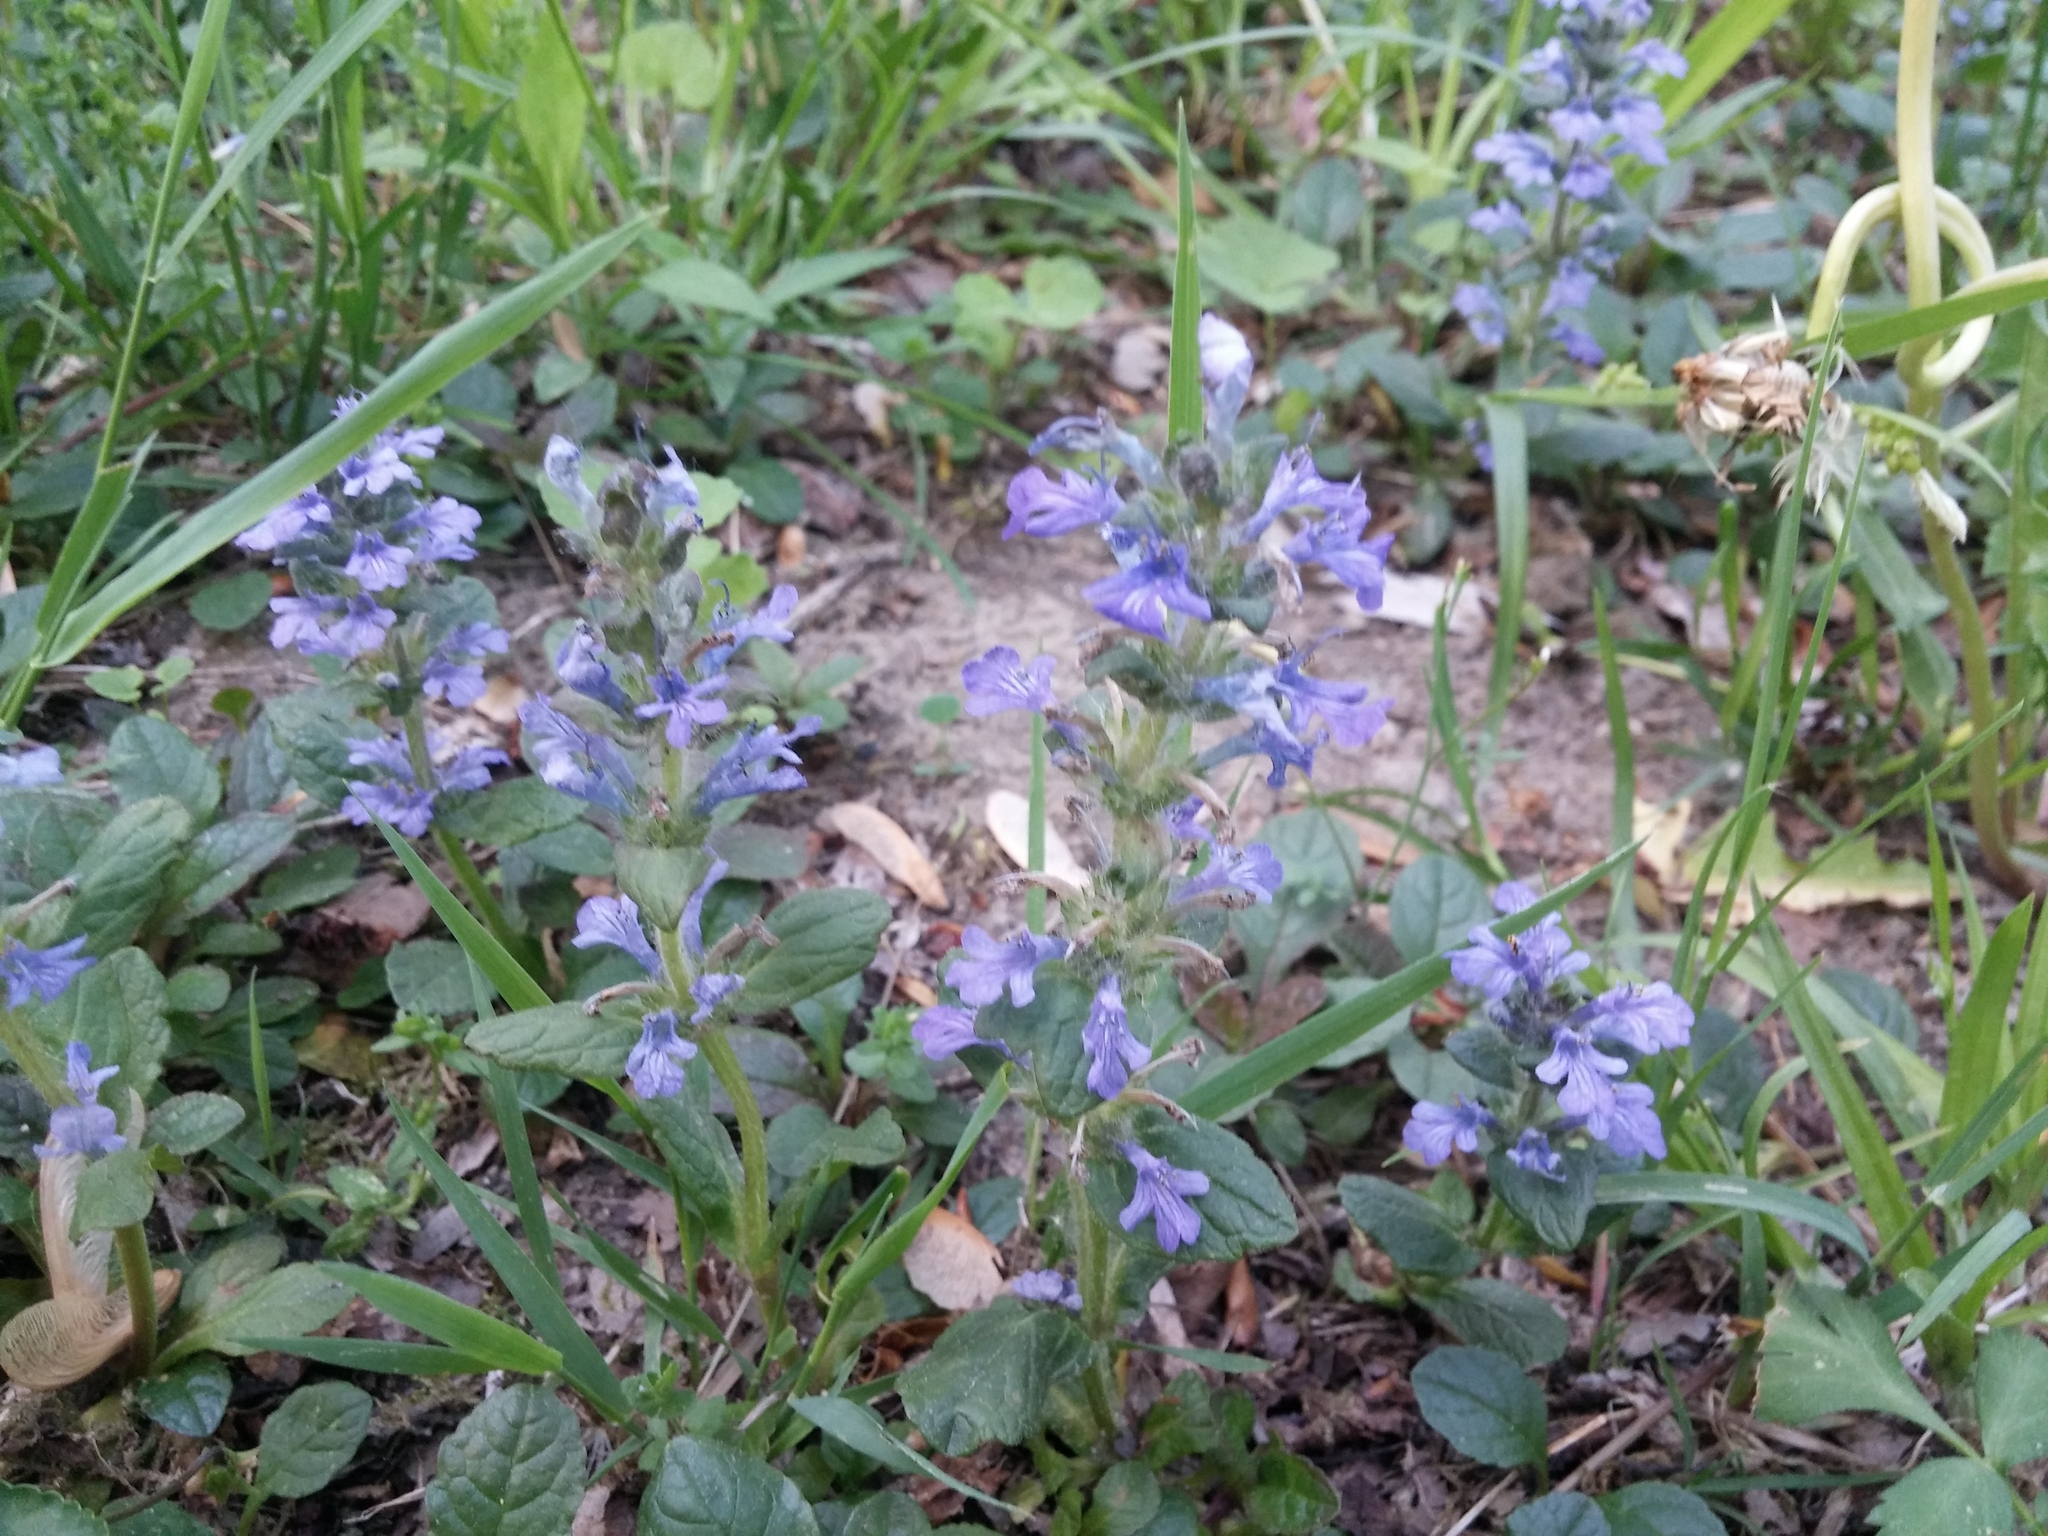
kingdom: Plantae
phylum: Tracheophyta
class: Magnoliopsida
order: Lamiales
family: Lamiaceae
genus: Ajuga
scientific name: Ajuga reptans
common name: Bugle
